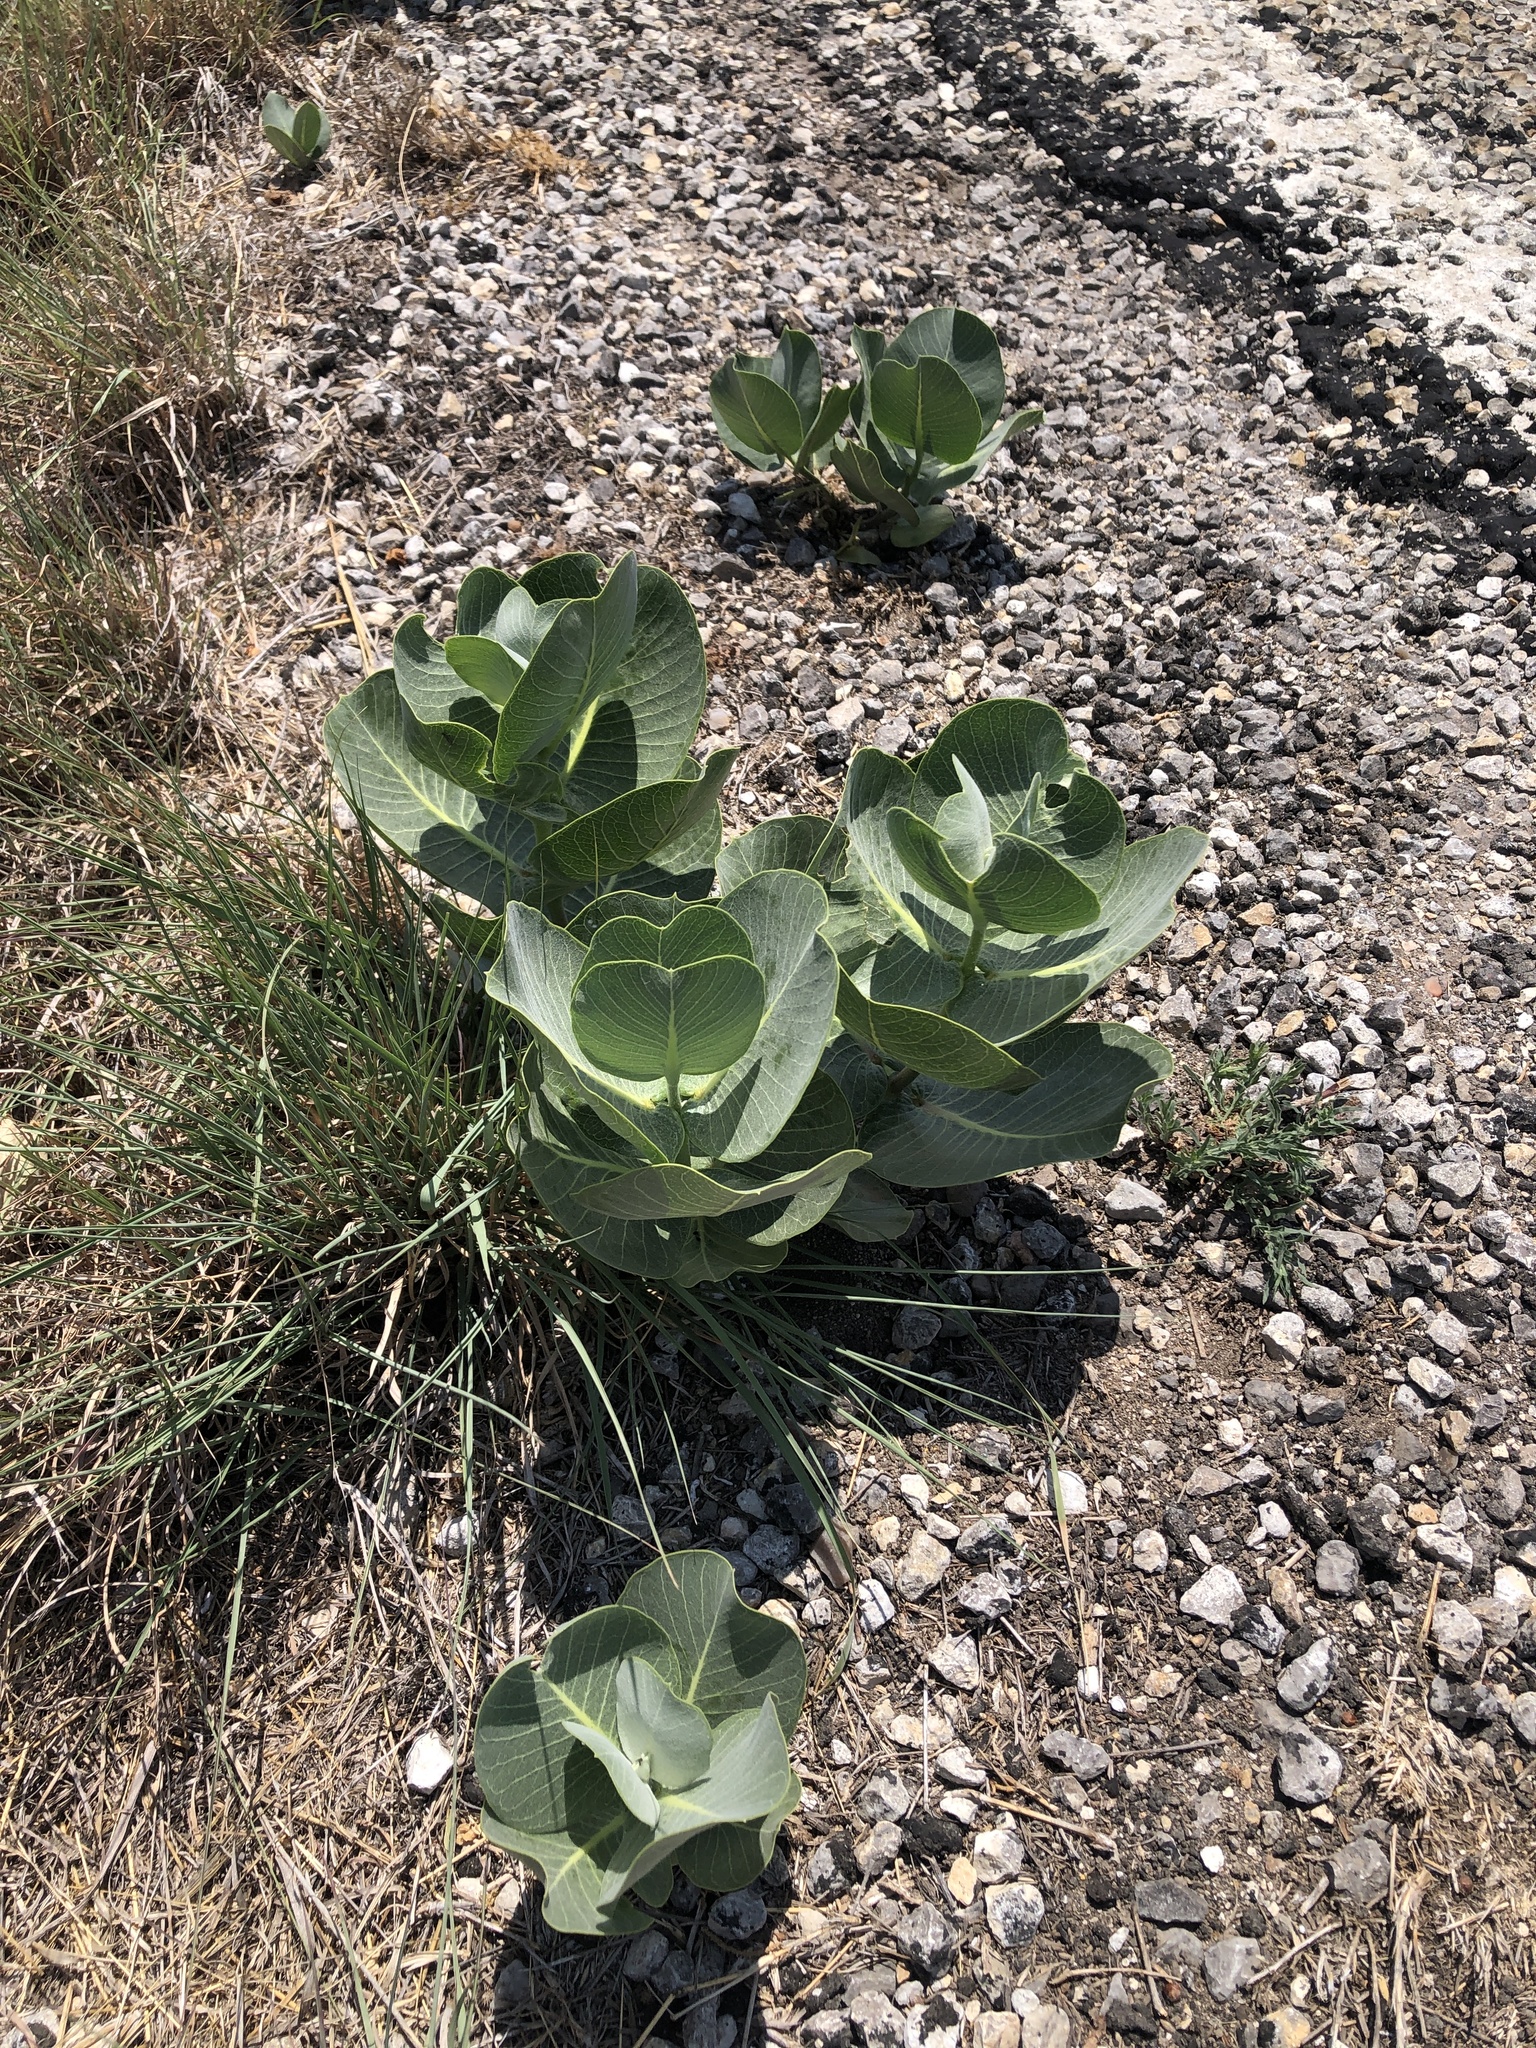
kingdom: Plantae
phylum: Tracheophyta
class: Magnoliopsida
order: Gentianales
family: Apocynaceae
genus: Asclepias
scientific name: Asclepias latifolia
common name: Broadleaf milkweed
